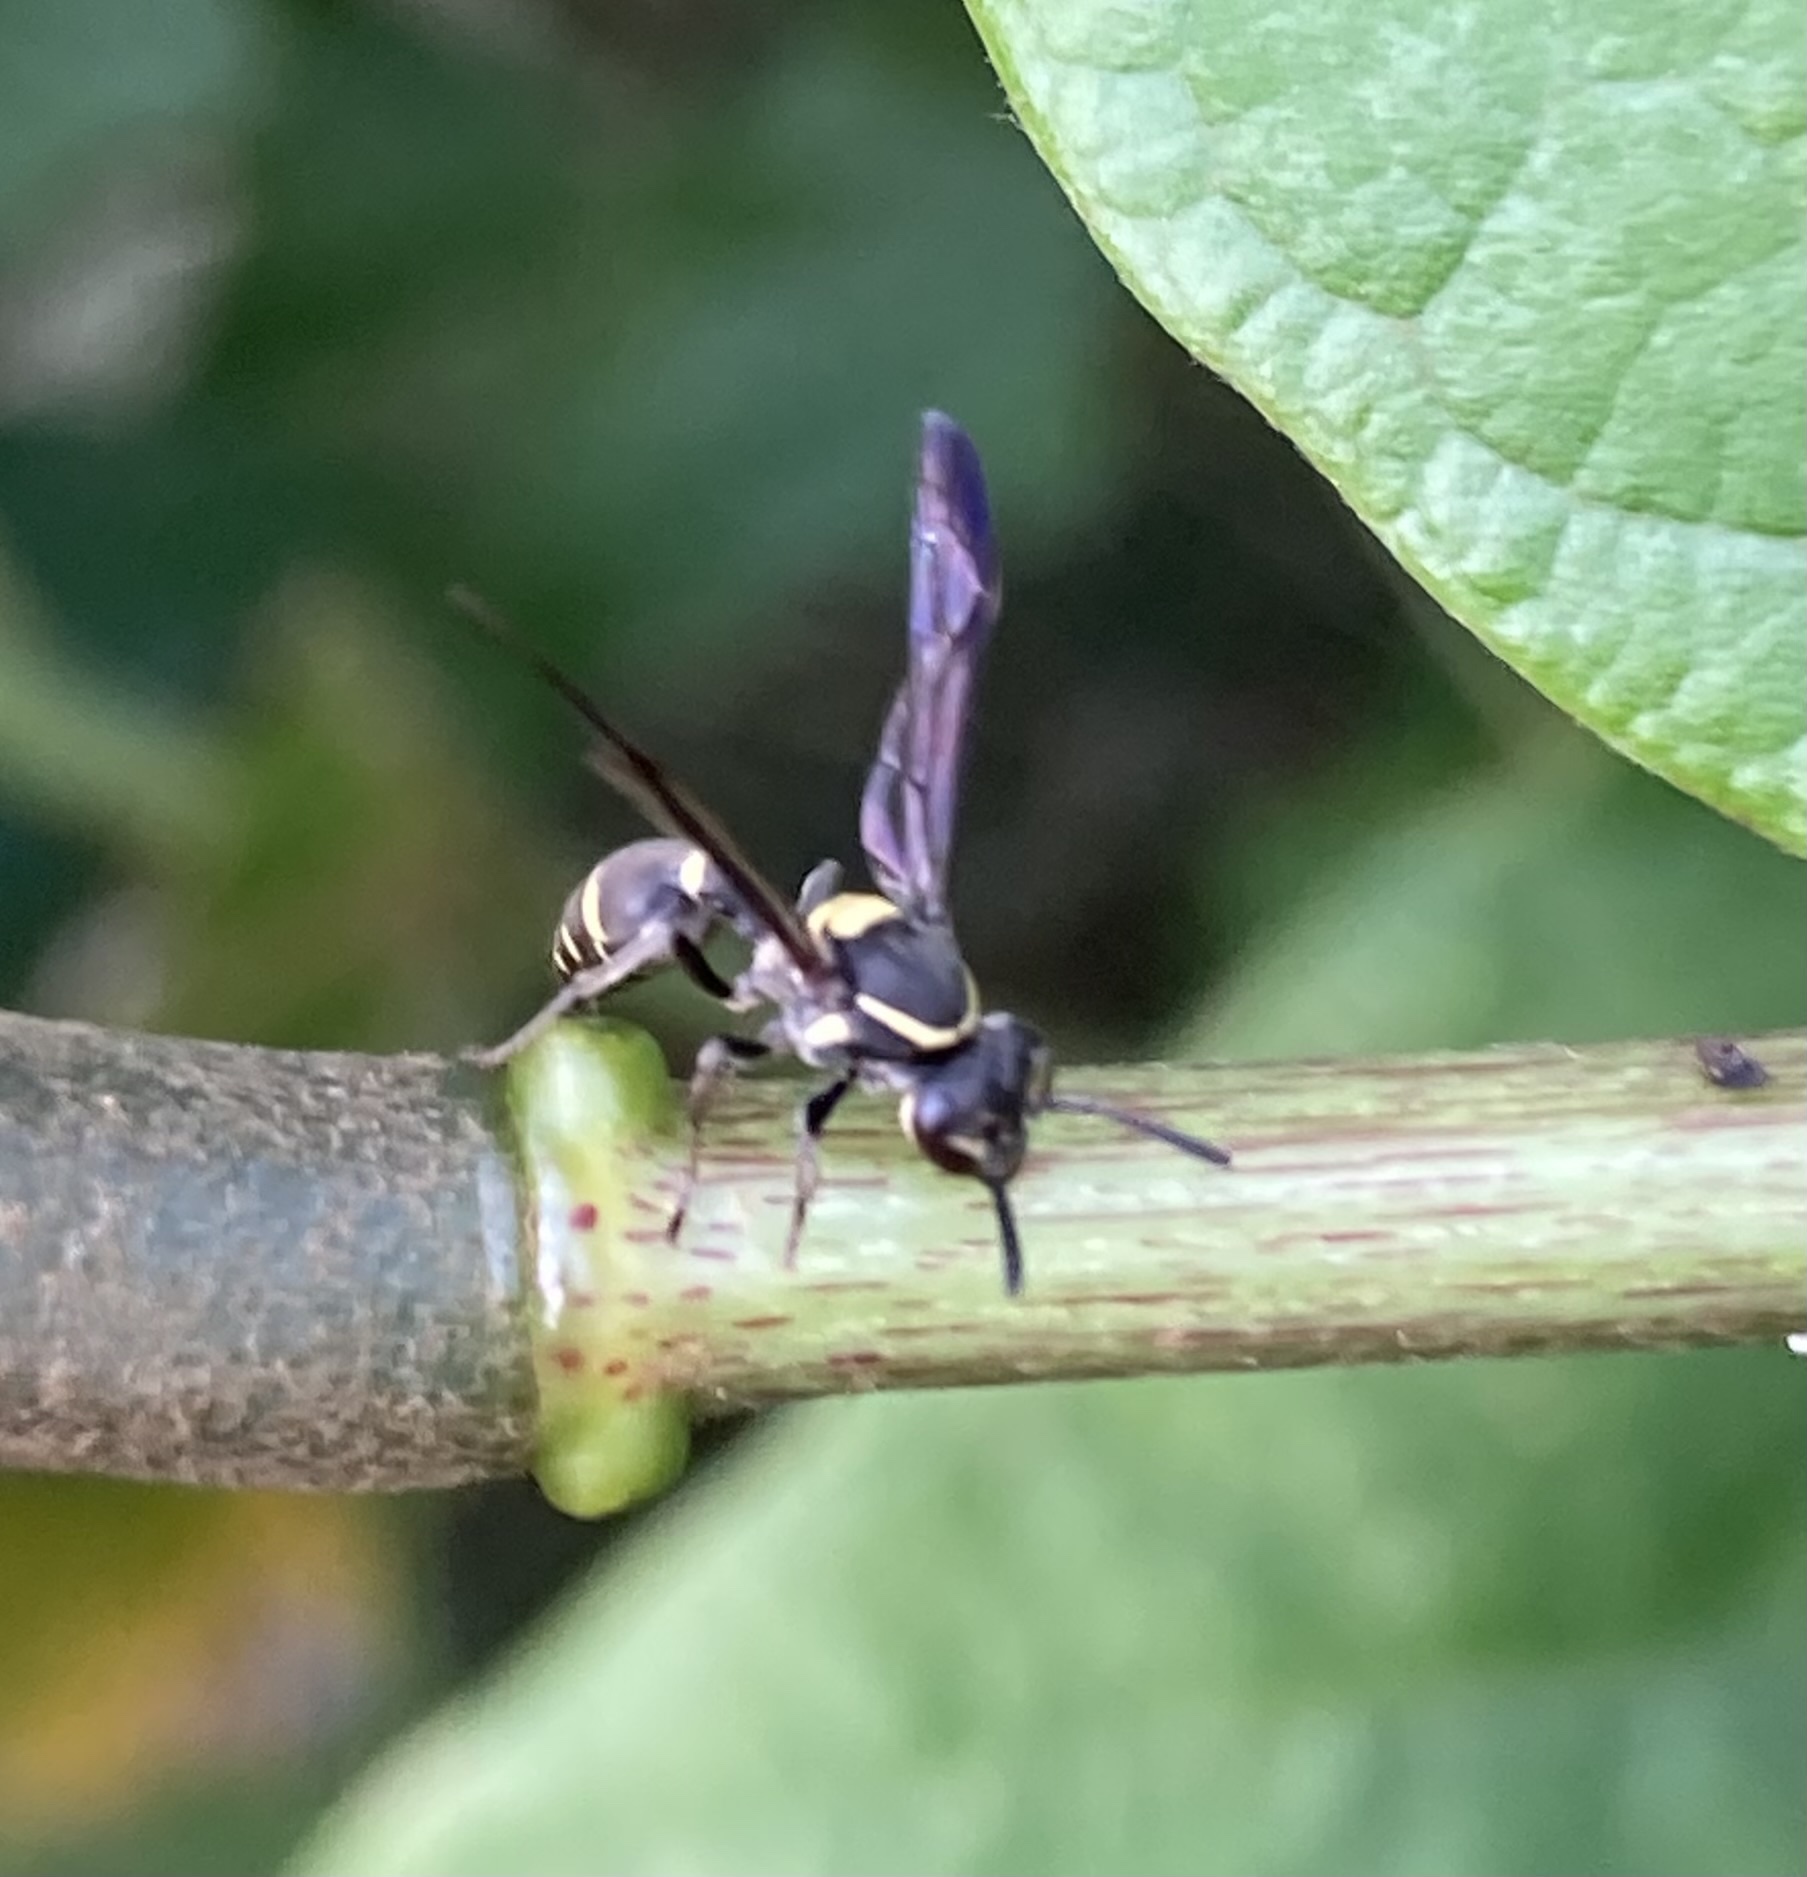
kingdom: Animalia
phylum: Arthropoda
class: Insecta
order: Hymenoptera
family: Eumenidae
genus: Polybia
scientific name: Polybia occidentalis
